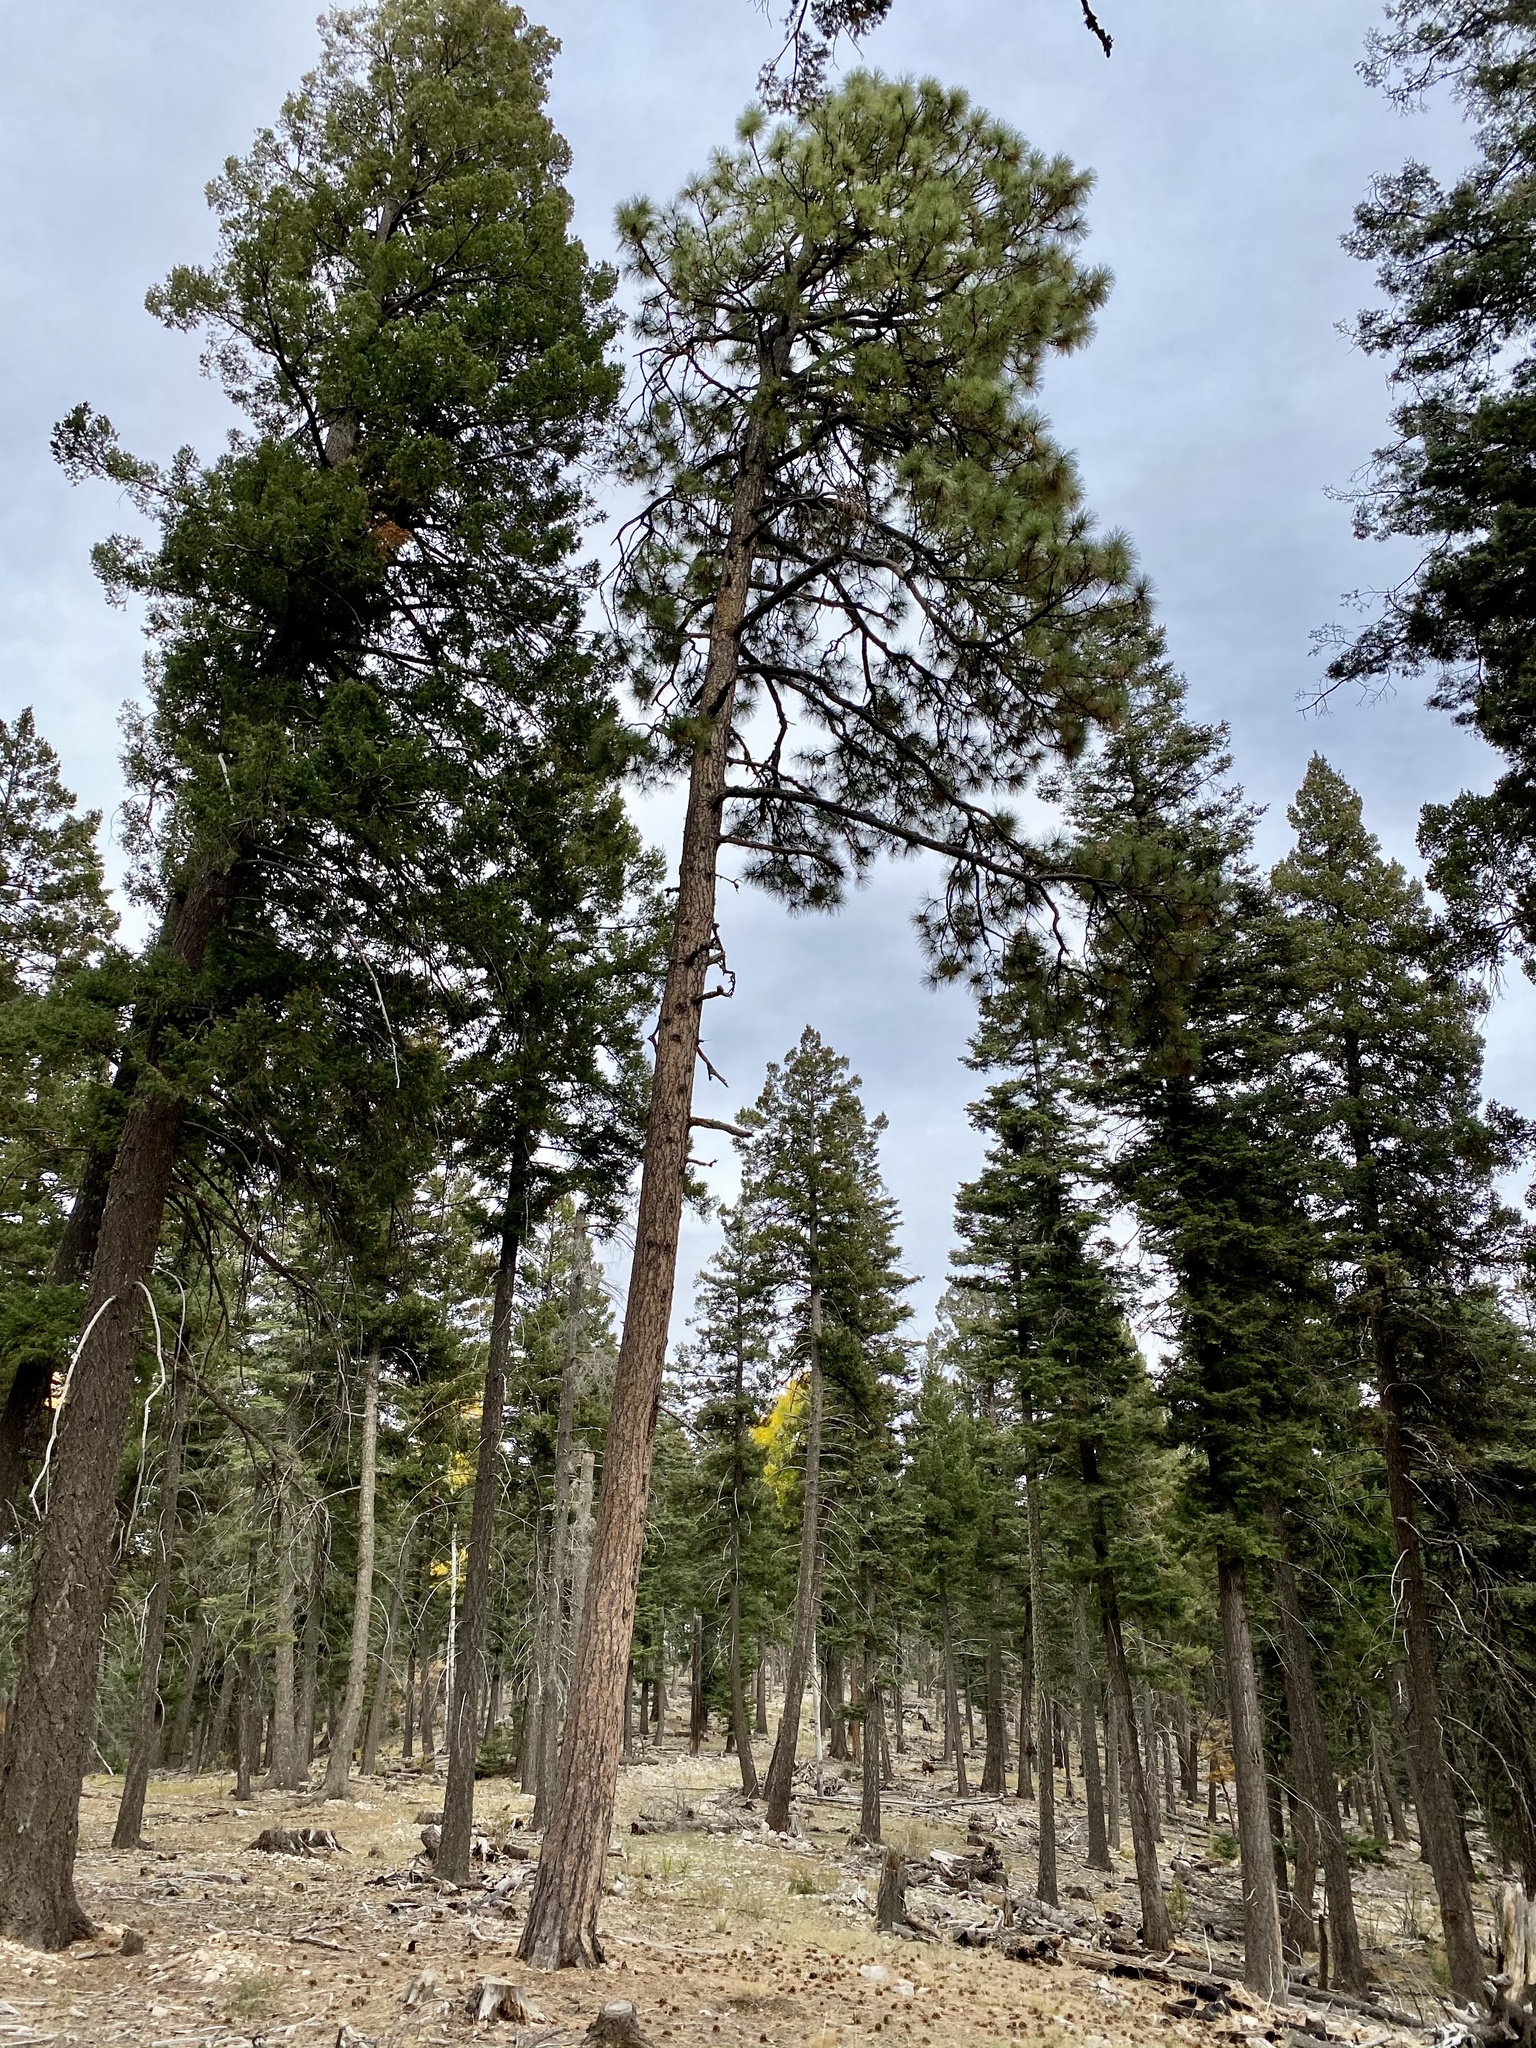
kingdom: Plantae
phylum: Tracheophyta
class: Pinopsida
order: Pinales
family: Pinaceae
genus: Pinus
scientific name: Pinus ponderosa
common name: Western yellow-pine
